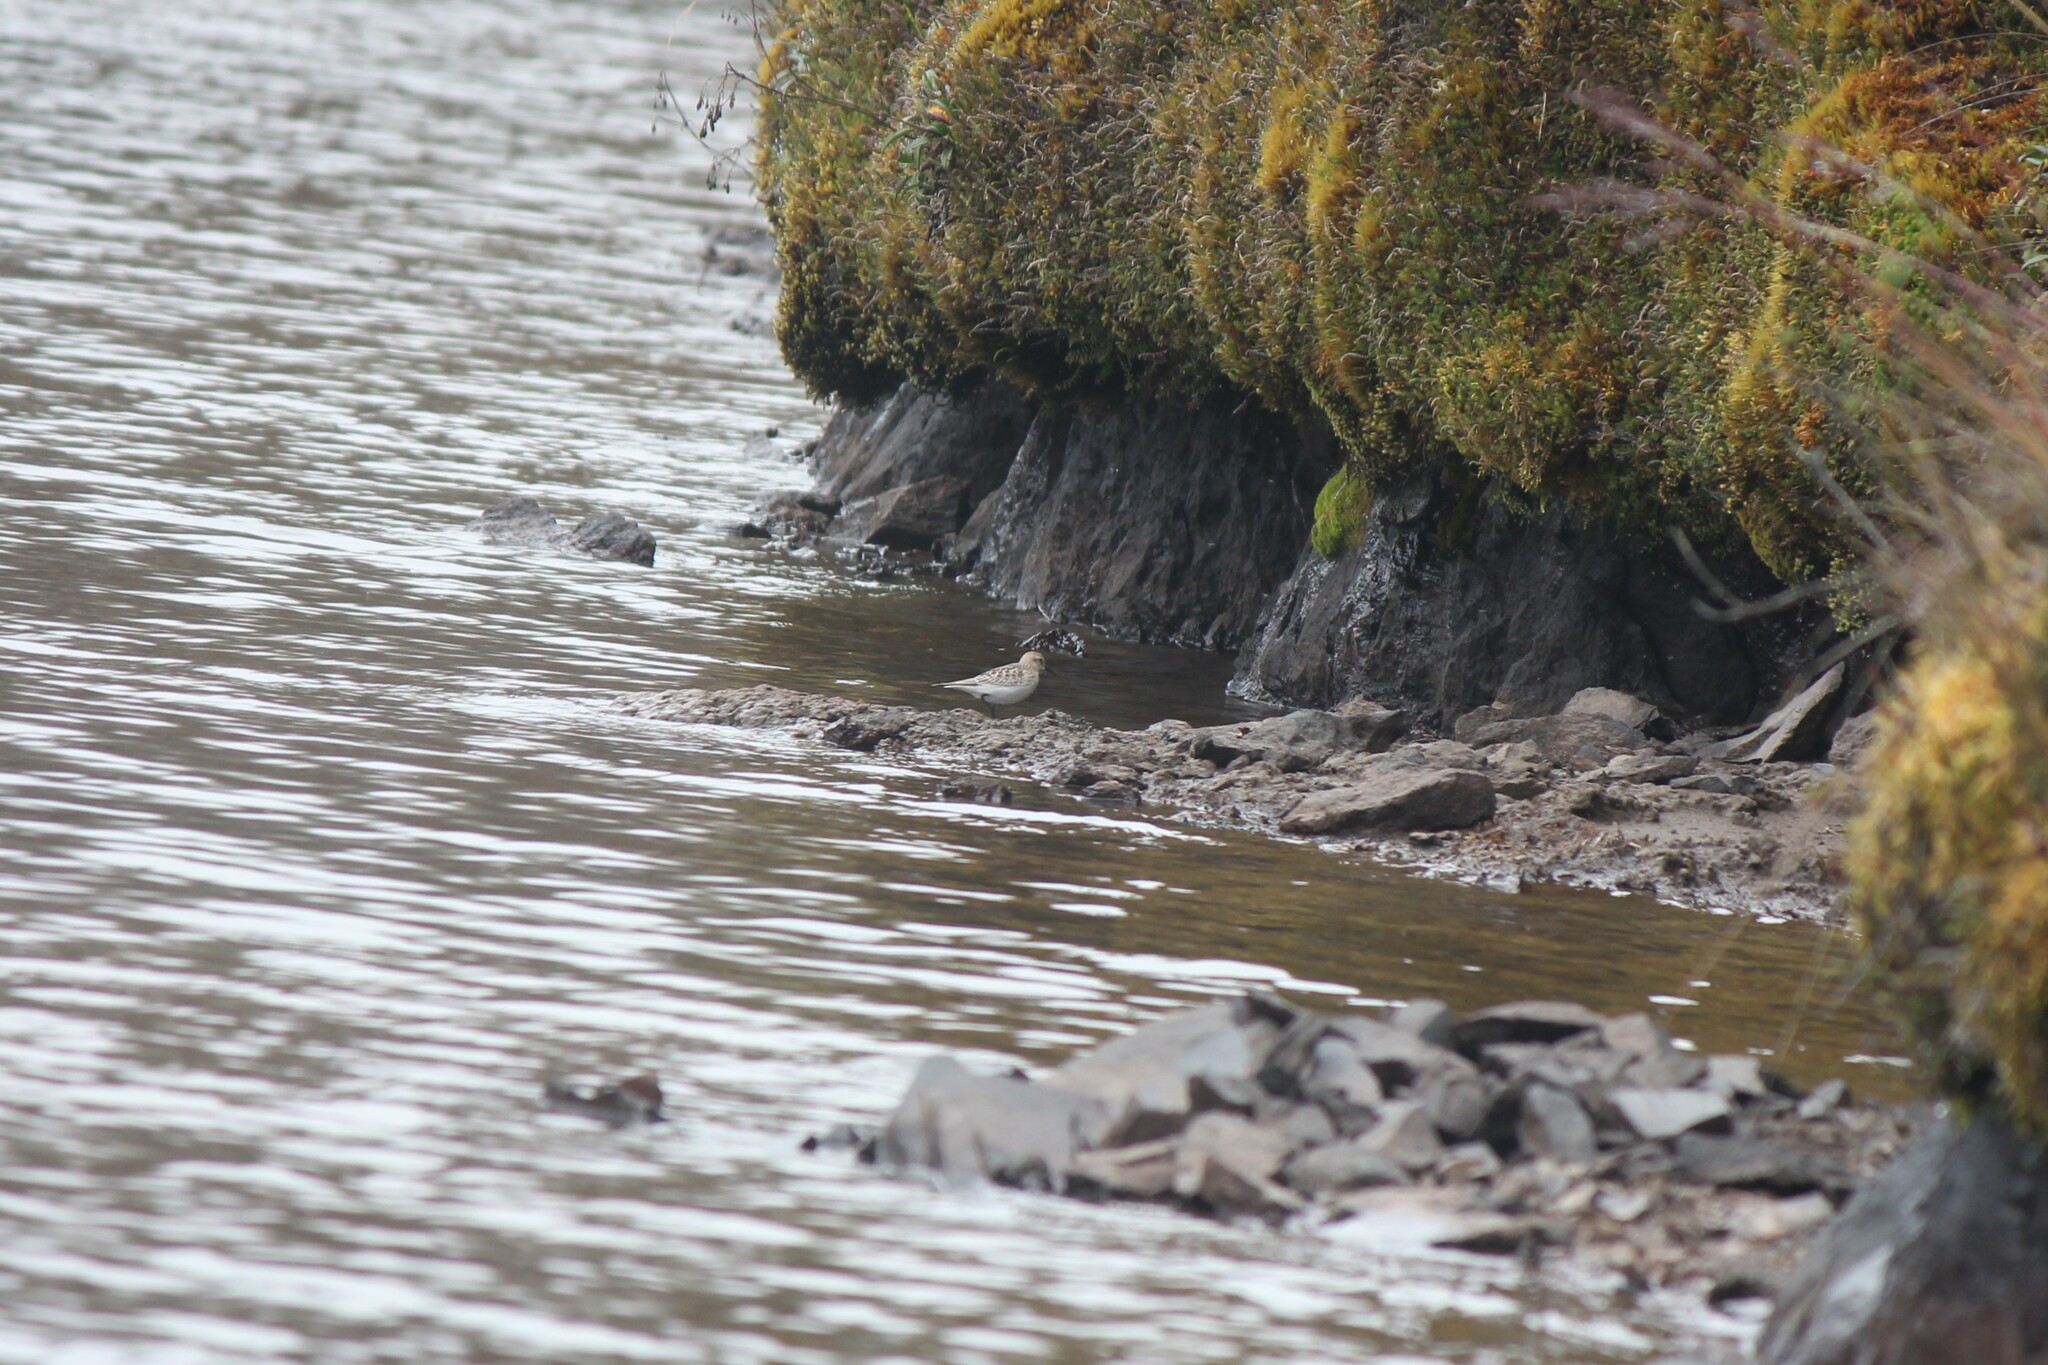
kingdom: Animalia
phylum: Chordata
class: Aves
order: Charadriiformes
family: Scolopacidae
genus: Calidris
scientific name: Calidris bairdii
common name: Baird's sandpiper
